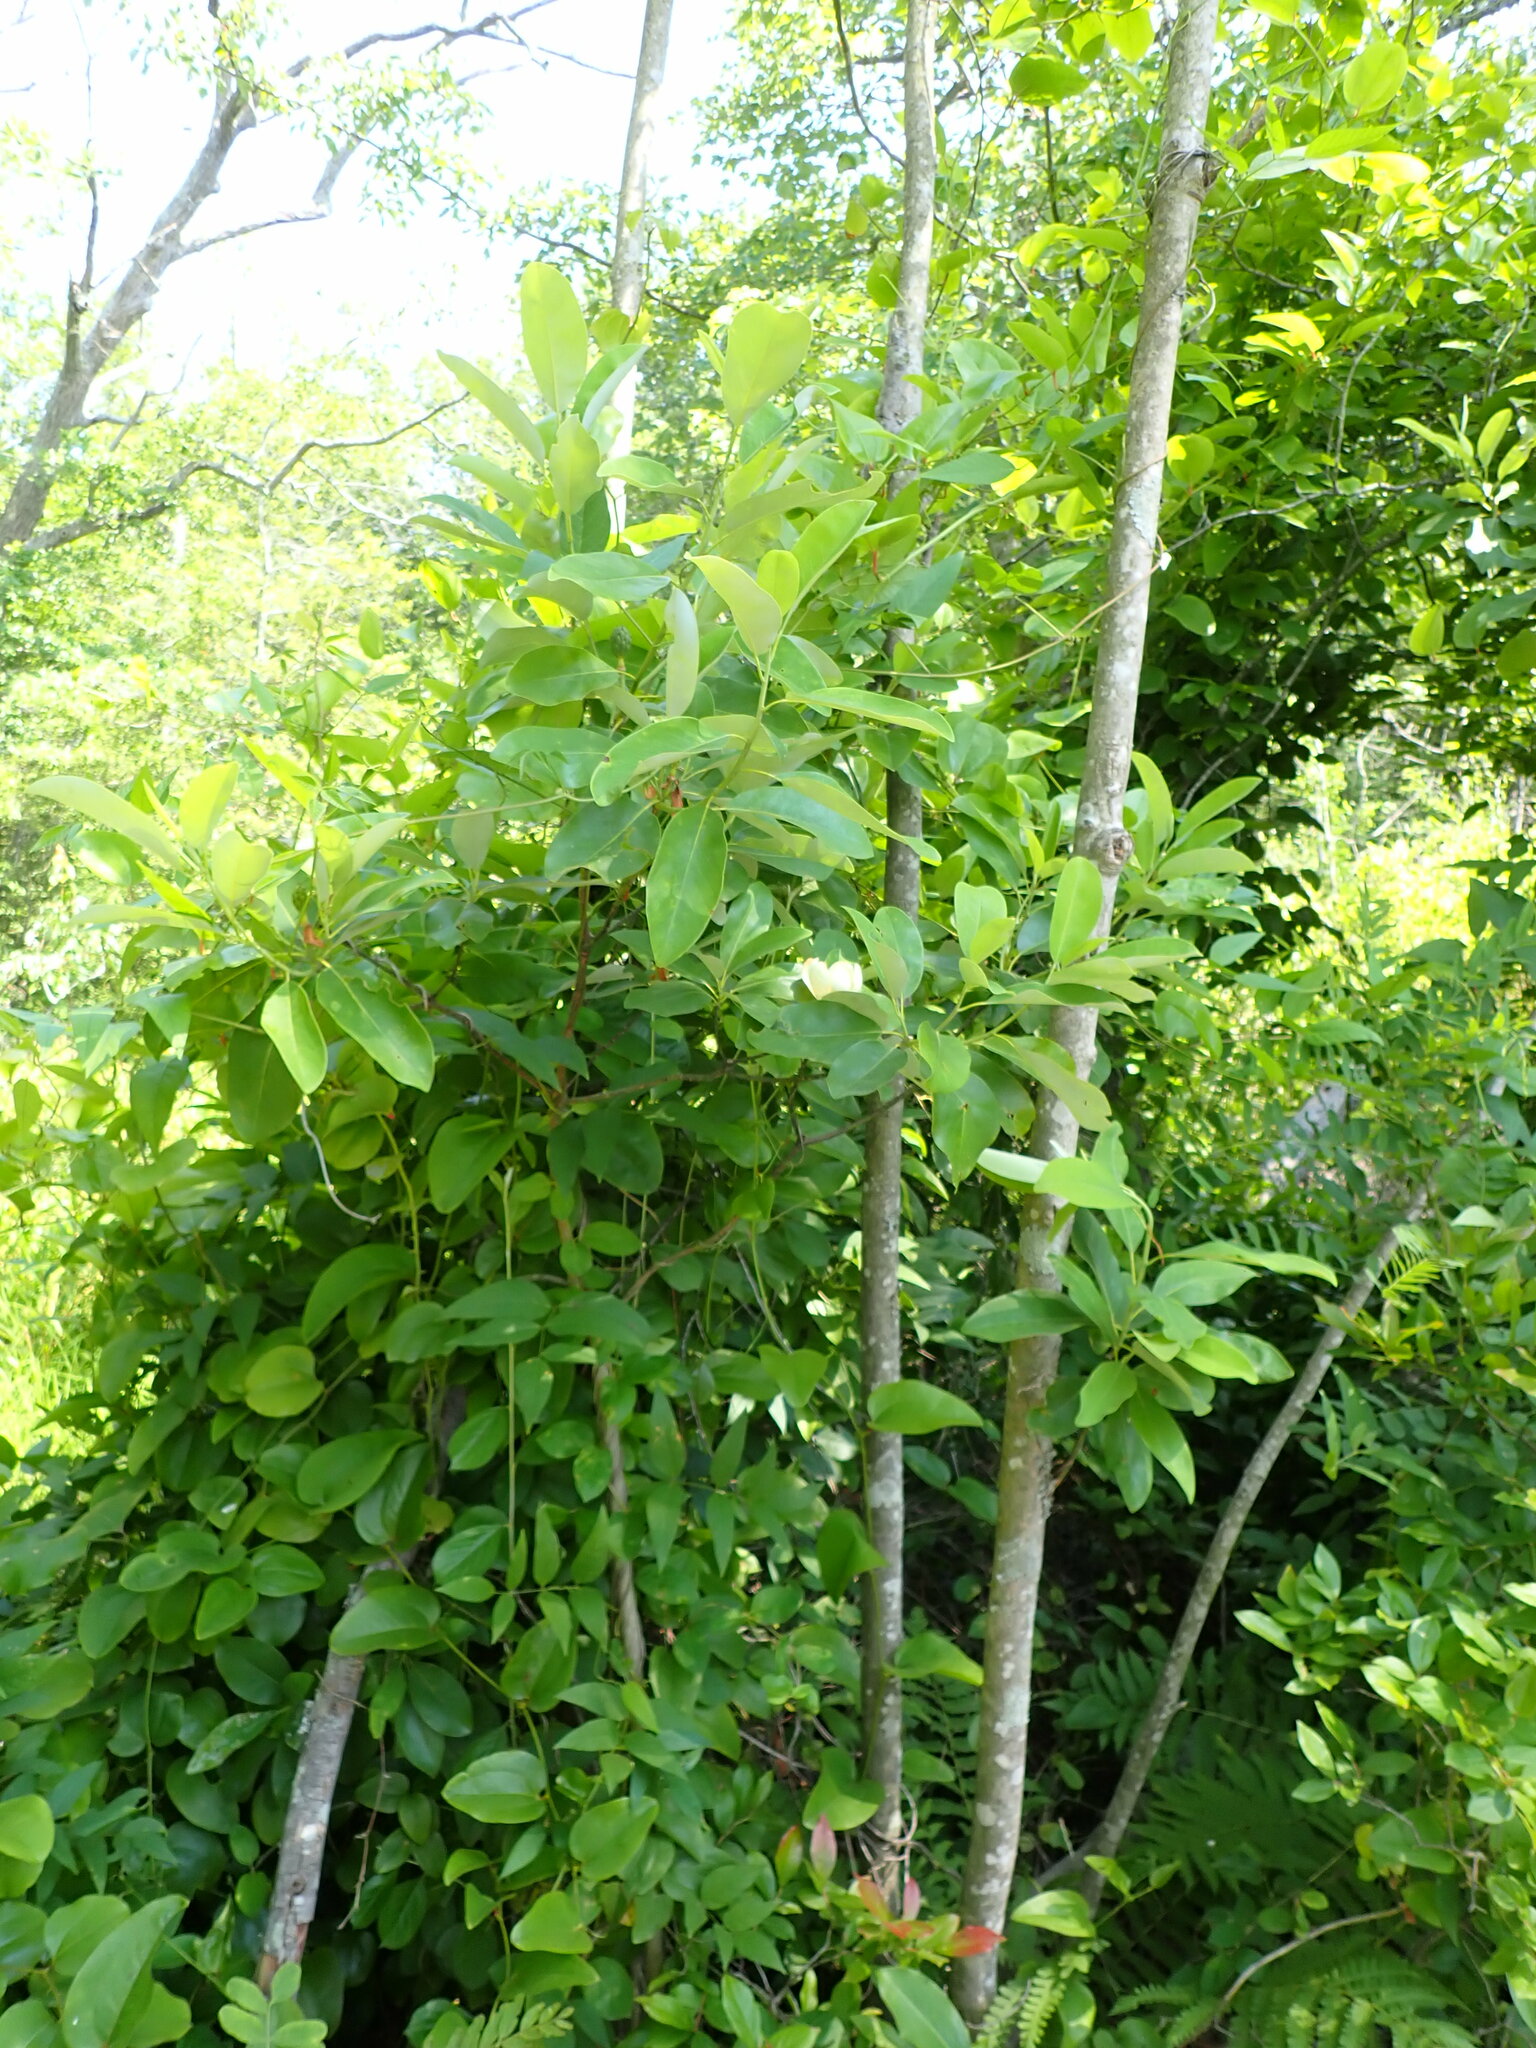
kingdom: Plantae
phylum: Tracheophyta
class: Magnoliopsida
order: Magnoliales
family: Magnoliaceae
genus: Magnolia
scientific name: Magnolia virginiana
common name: Swamp bay
